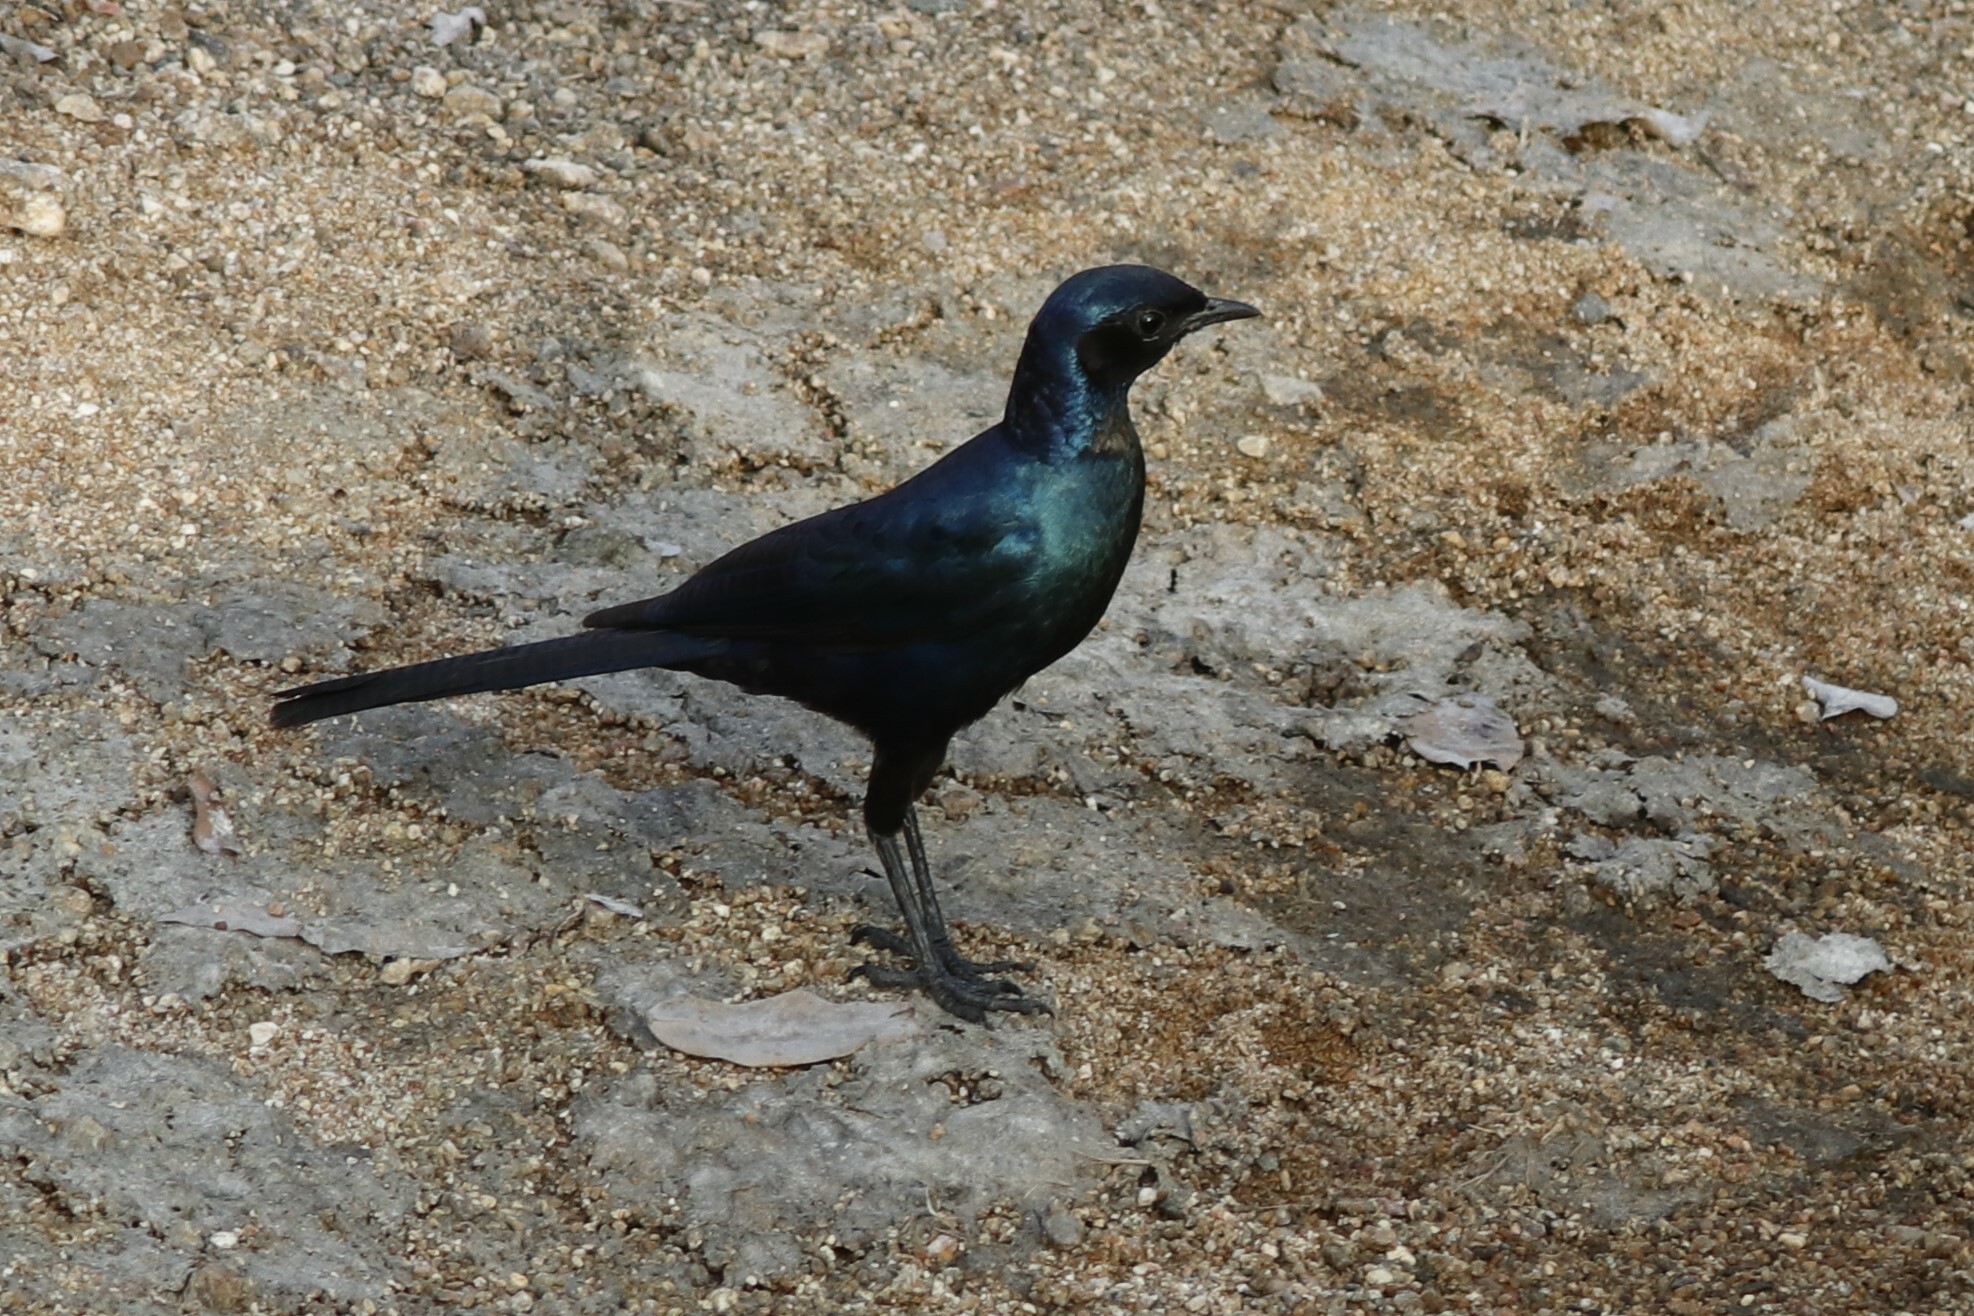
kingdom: Animalia
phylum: Chordata
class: Aves
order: Passeriformes
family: Sturnidae
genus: Lamprotornis
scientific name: Lamprotornis australis
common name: Burchell's starling
